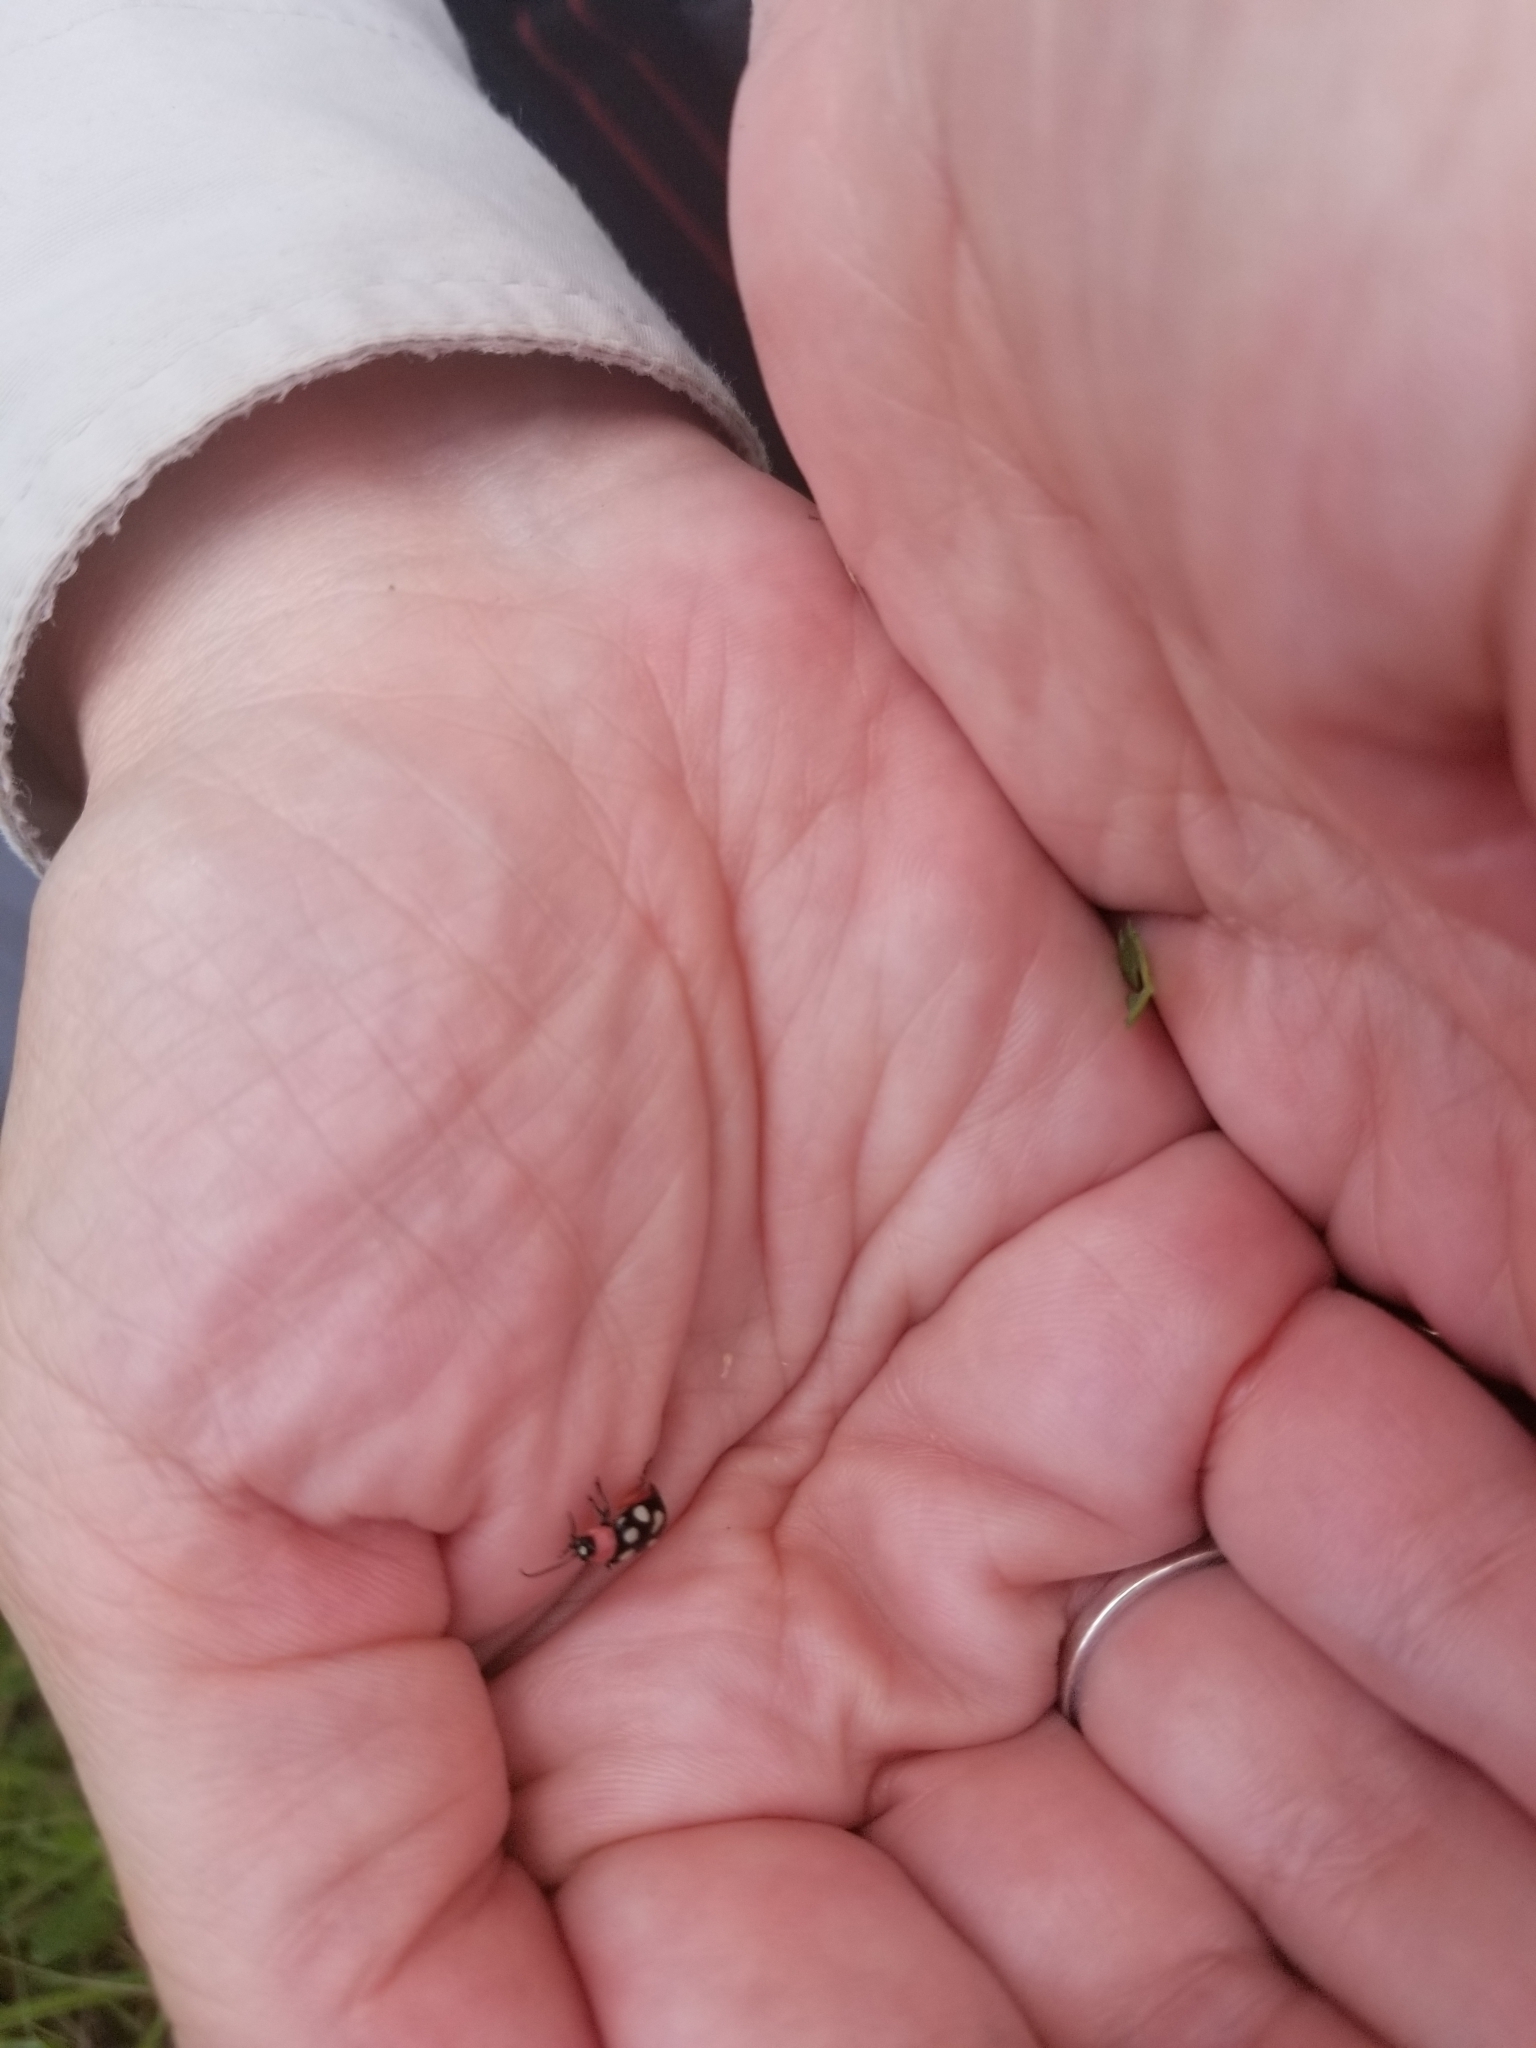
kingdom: Animalia
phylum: Arthropoda
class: Insecta
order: Coleoptera
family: Chrysomelidae
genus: Omophoita
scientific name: Omophoita cyanipennis
